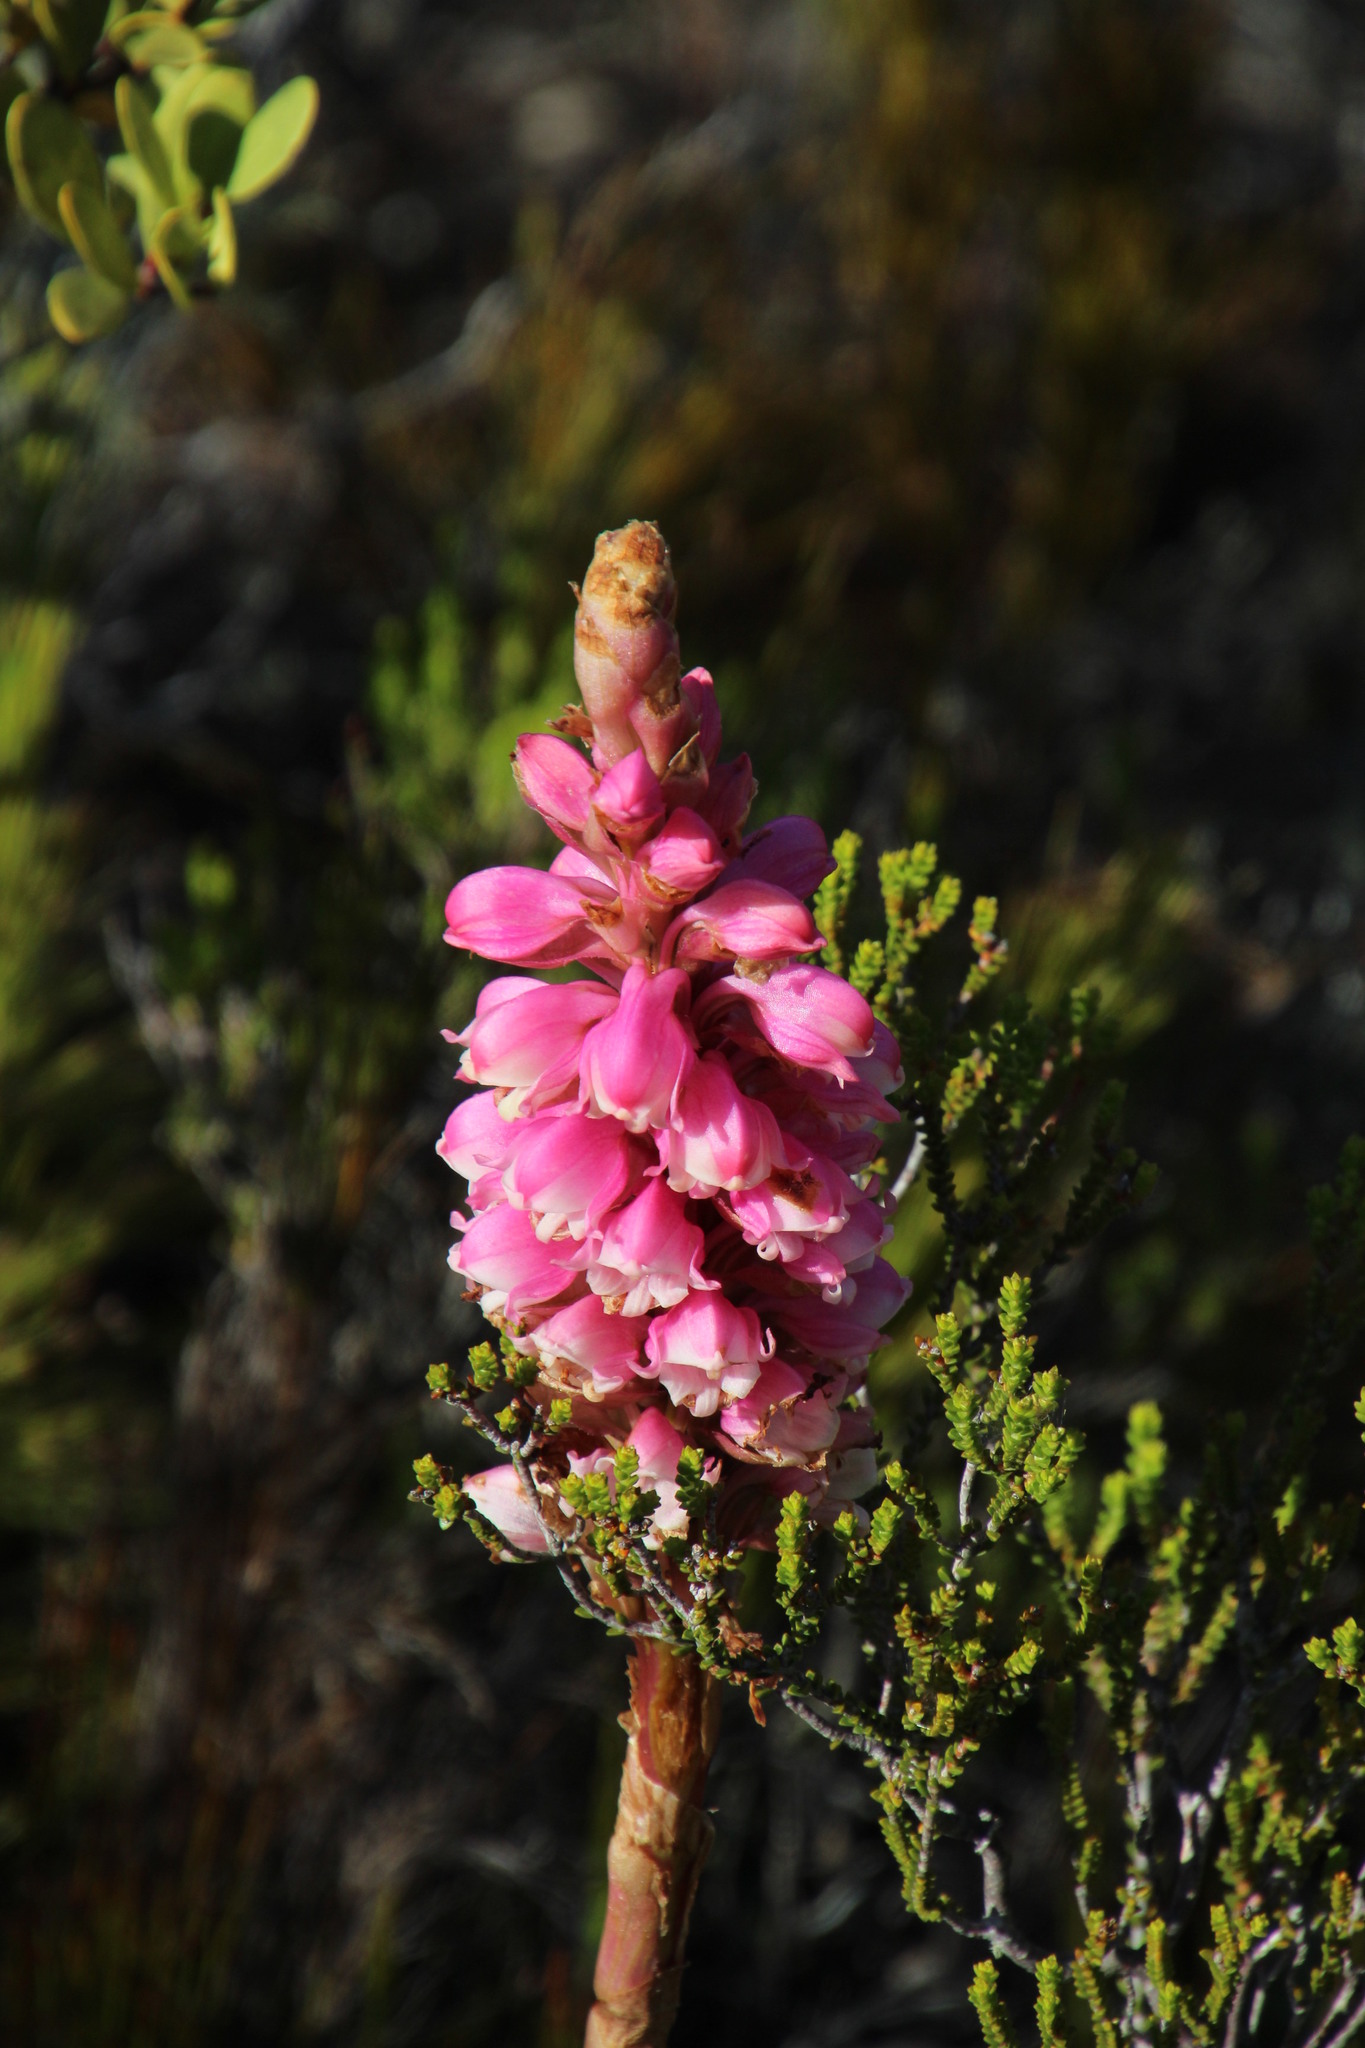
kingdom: Plantae
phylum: Tracheophyta
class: Liliopsida
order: Asparagales
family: Orchidaceae
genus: Satyrium
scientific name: Satyrium carneum
